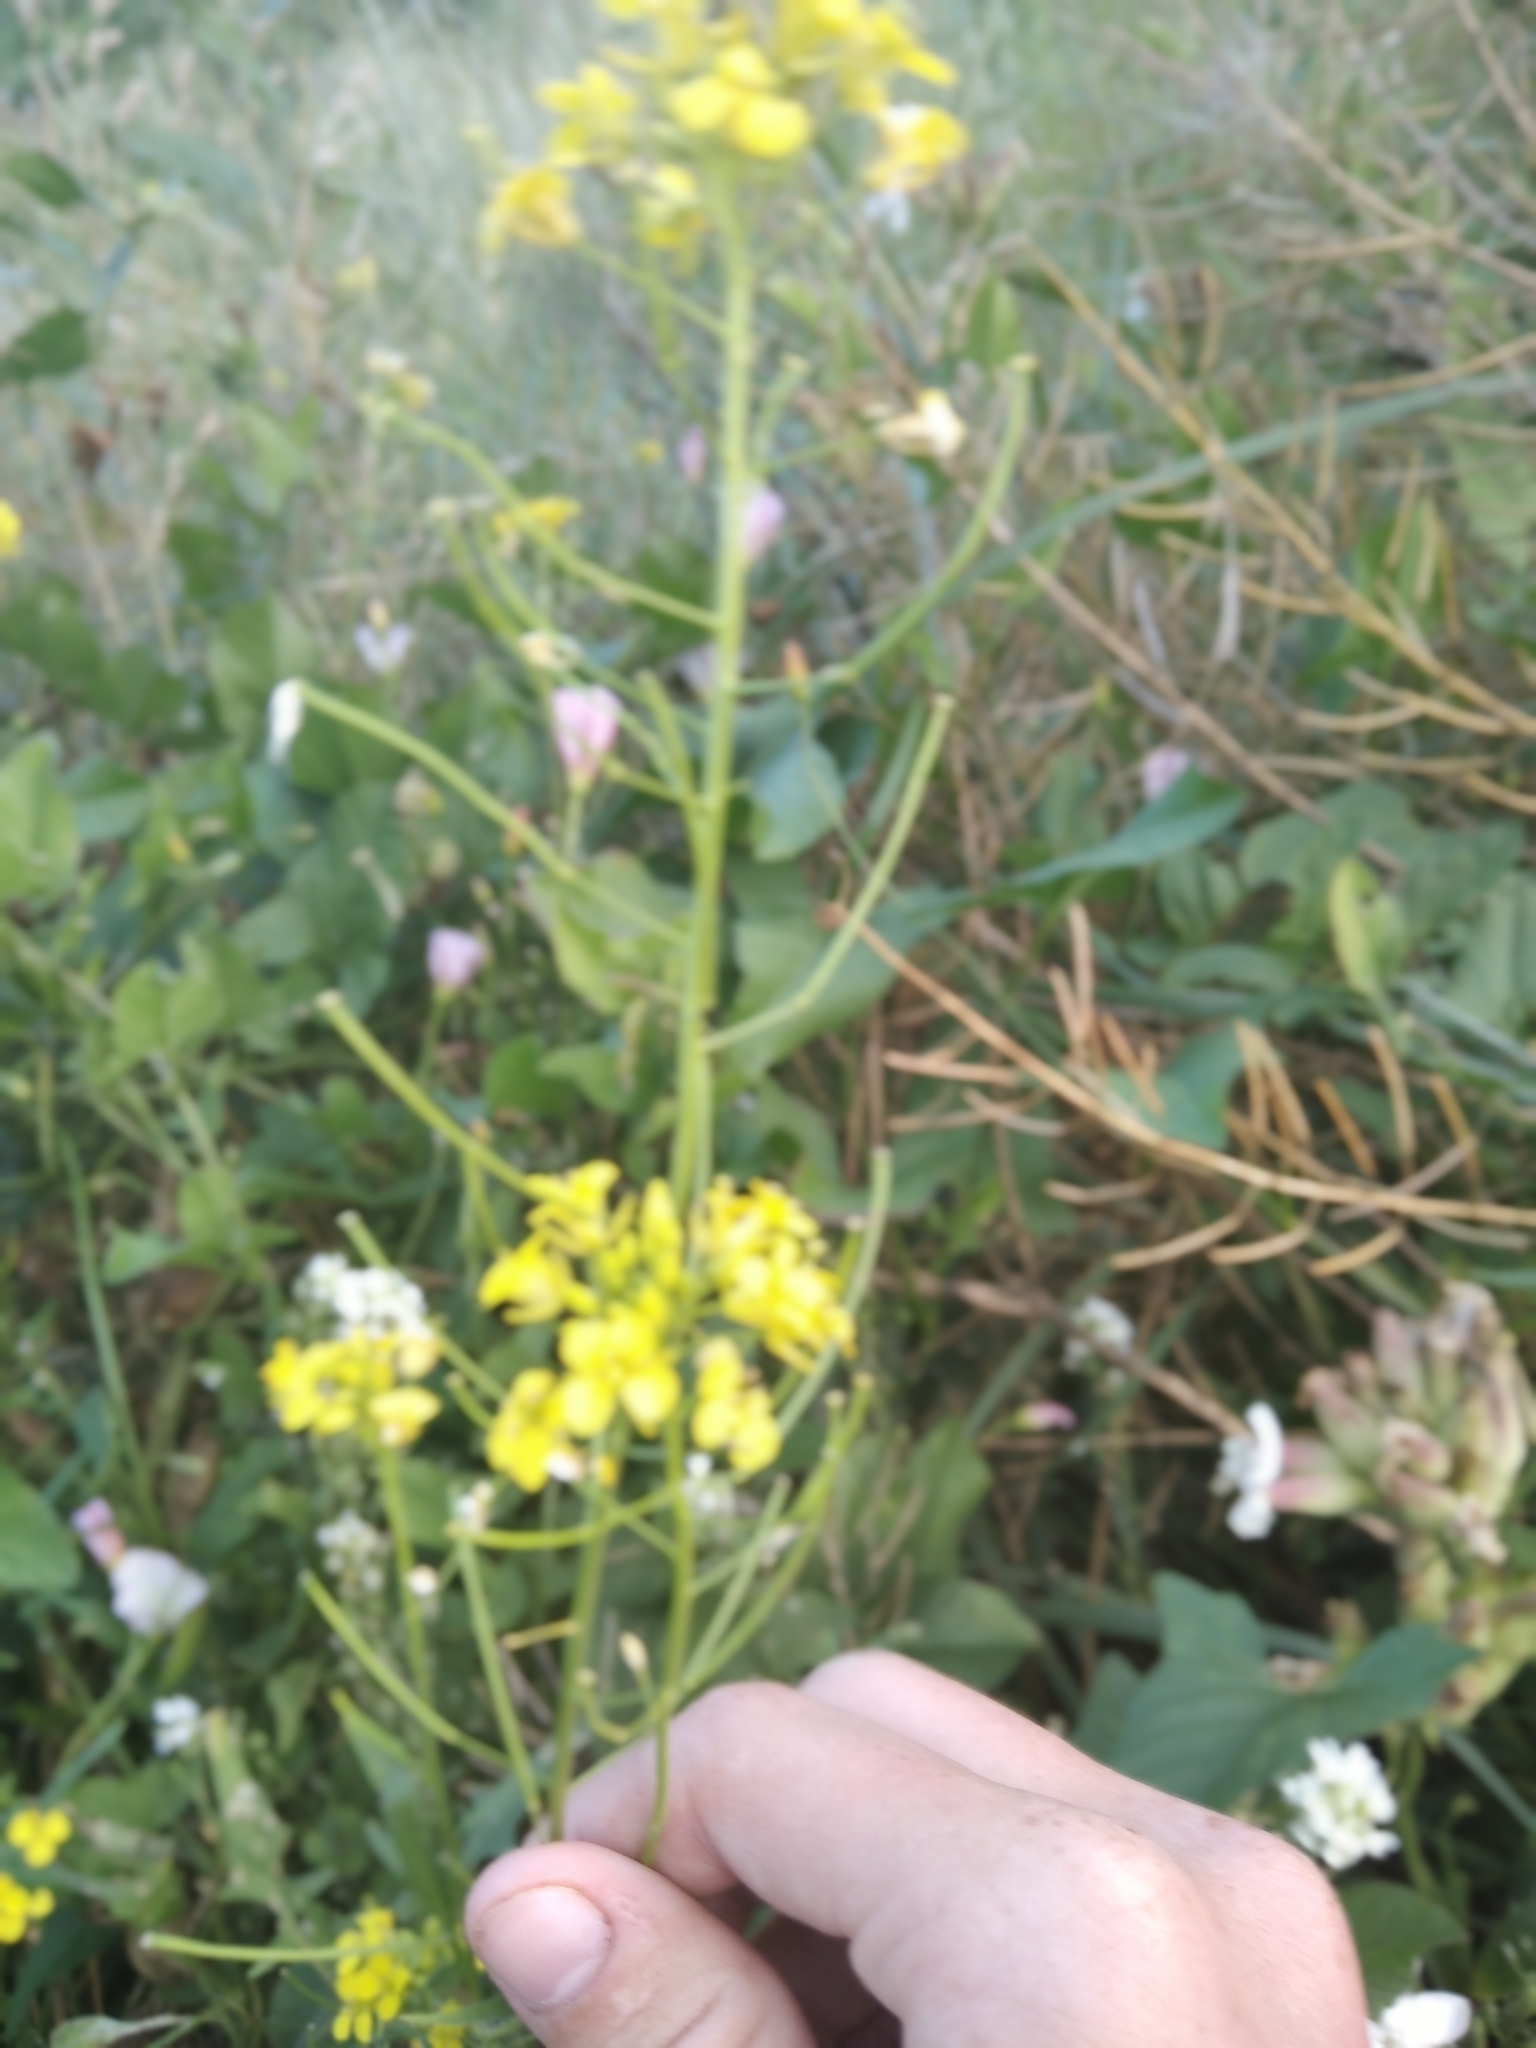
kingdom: Plantae
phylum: Tracheophyta
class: Magnoliopsida
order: Brassicales
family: Brassicaceae
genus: Sisymbrium
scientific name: Sisymbrium loeselii
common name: False london-rocket
